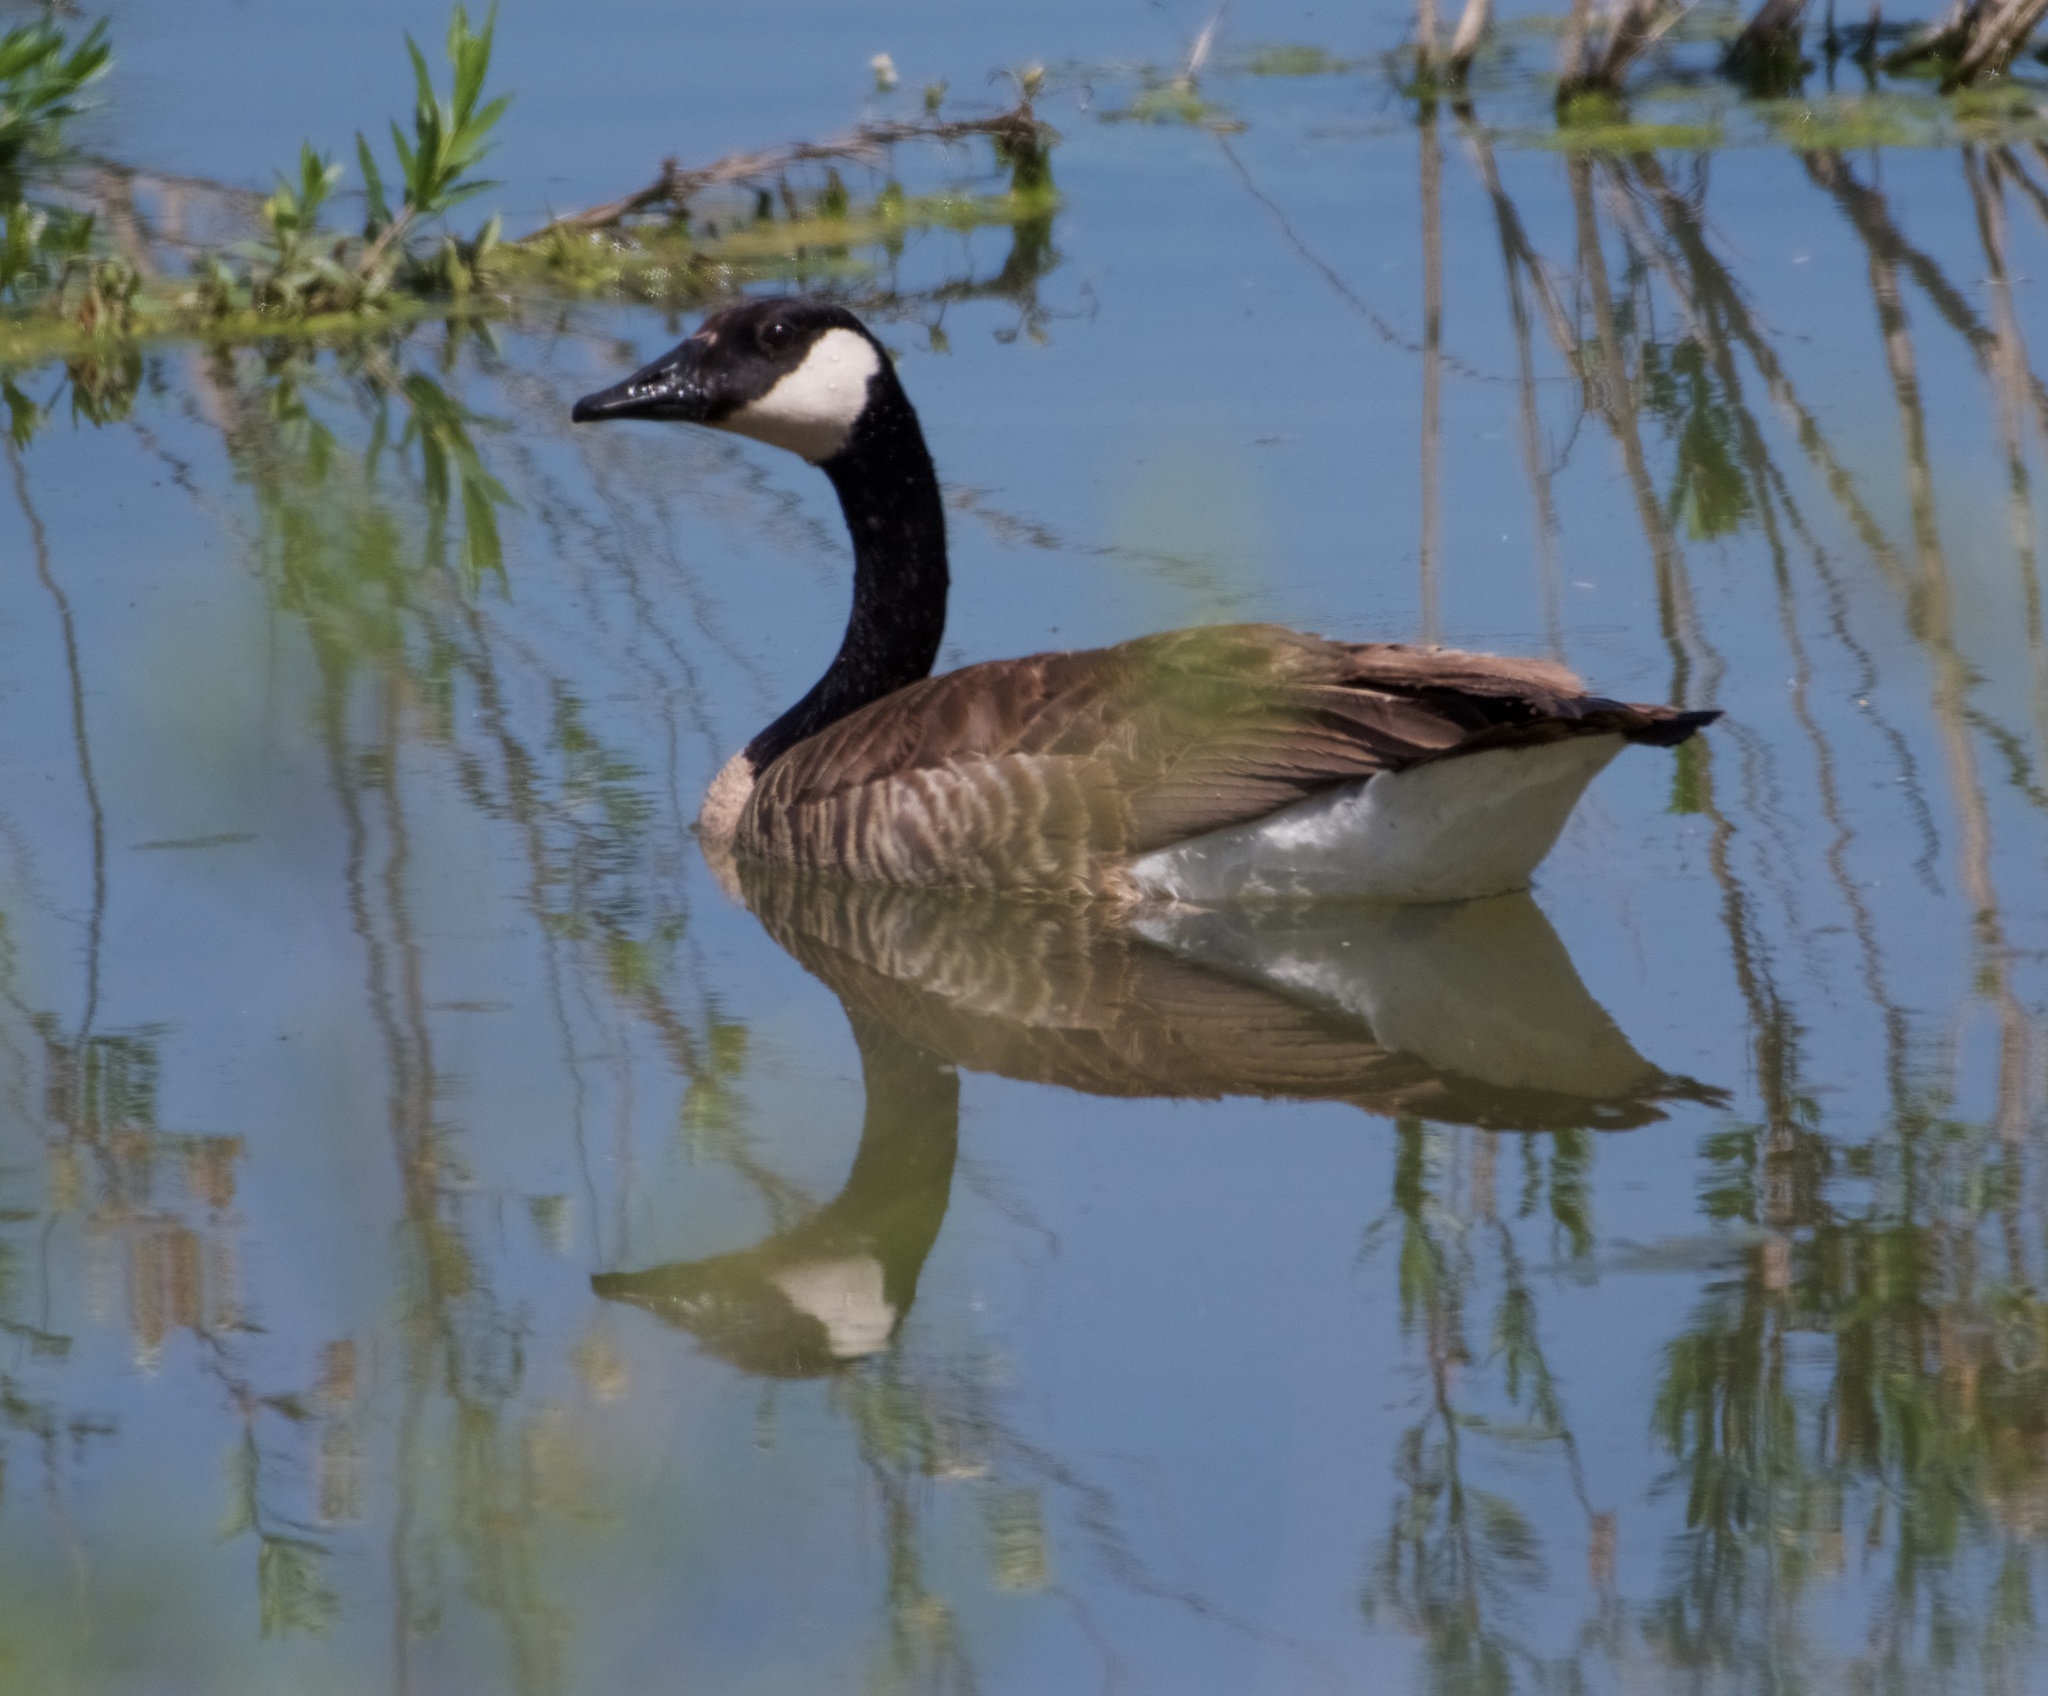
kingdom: Animalia
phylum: Chordata
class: Aves
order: Anseriformes
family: Anatidae
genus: Branta
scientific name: Branta canadensis
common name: Canada goose
